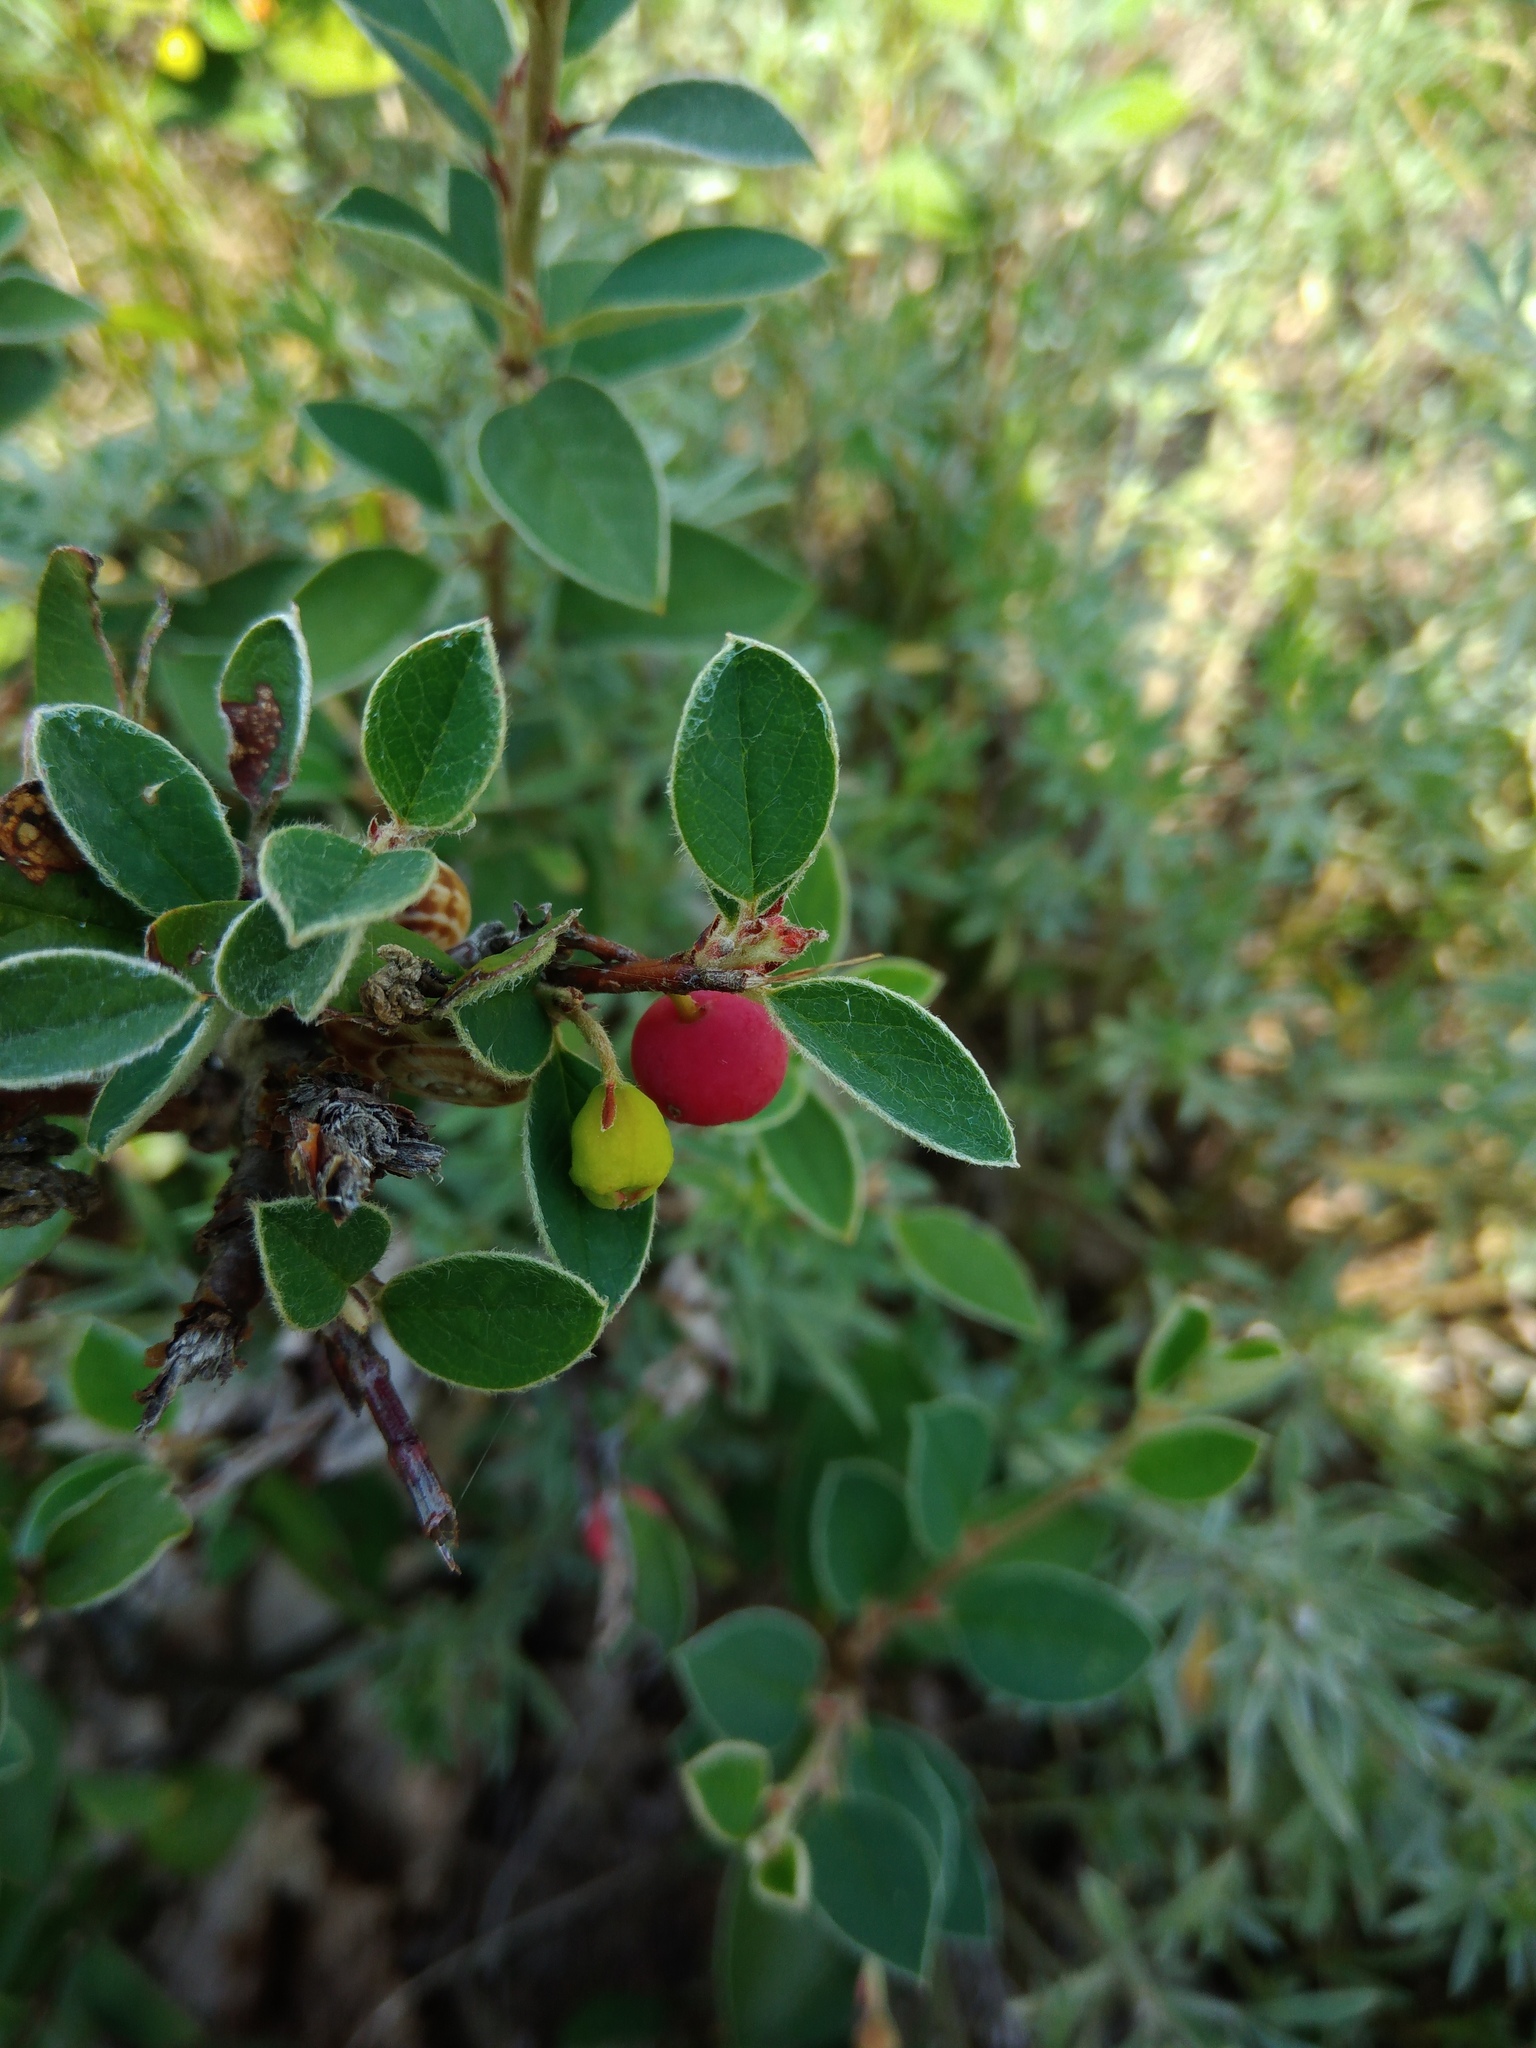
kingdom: Plantae
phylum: Tracheophyta
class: Magnoliopsida
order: Rosales
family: Rosaceae
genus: Cotoneaster
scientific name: Cotoneaster integerrimus
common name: Wild cotoneaster
